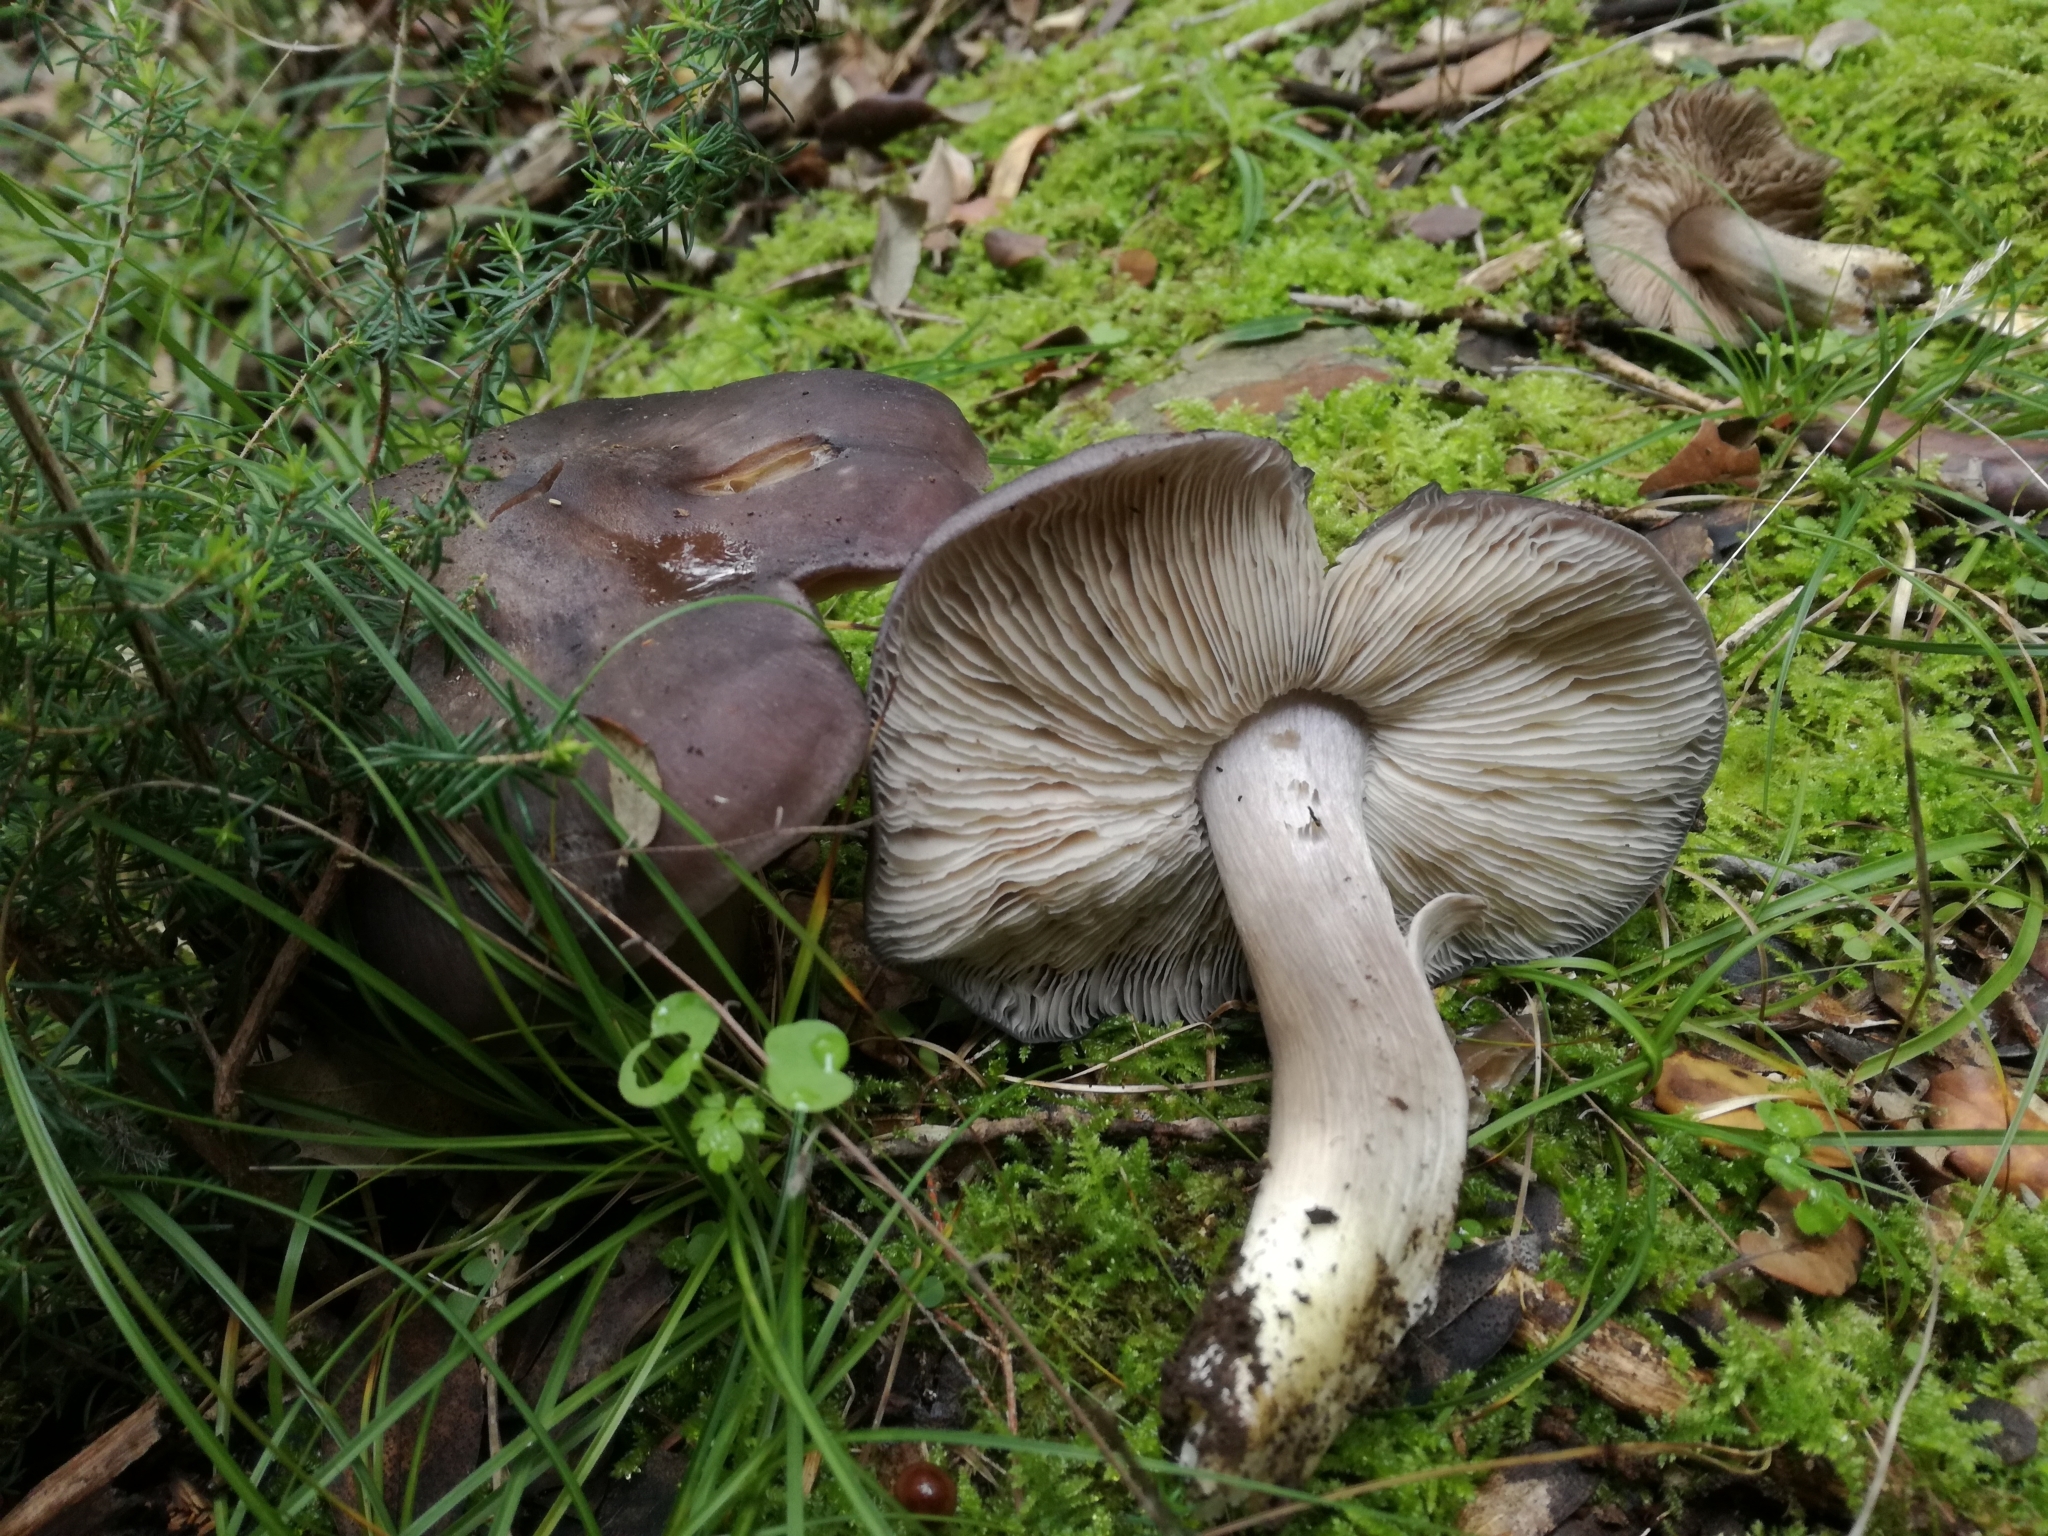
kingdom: Fungi
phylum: Basidiomycota
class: Agaricomycetes
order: Agaricales
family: Entolomataceae
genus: Entoloma
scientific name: Entoloma madidum
